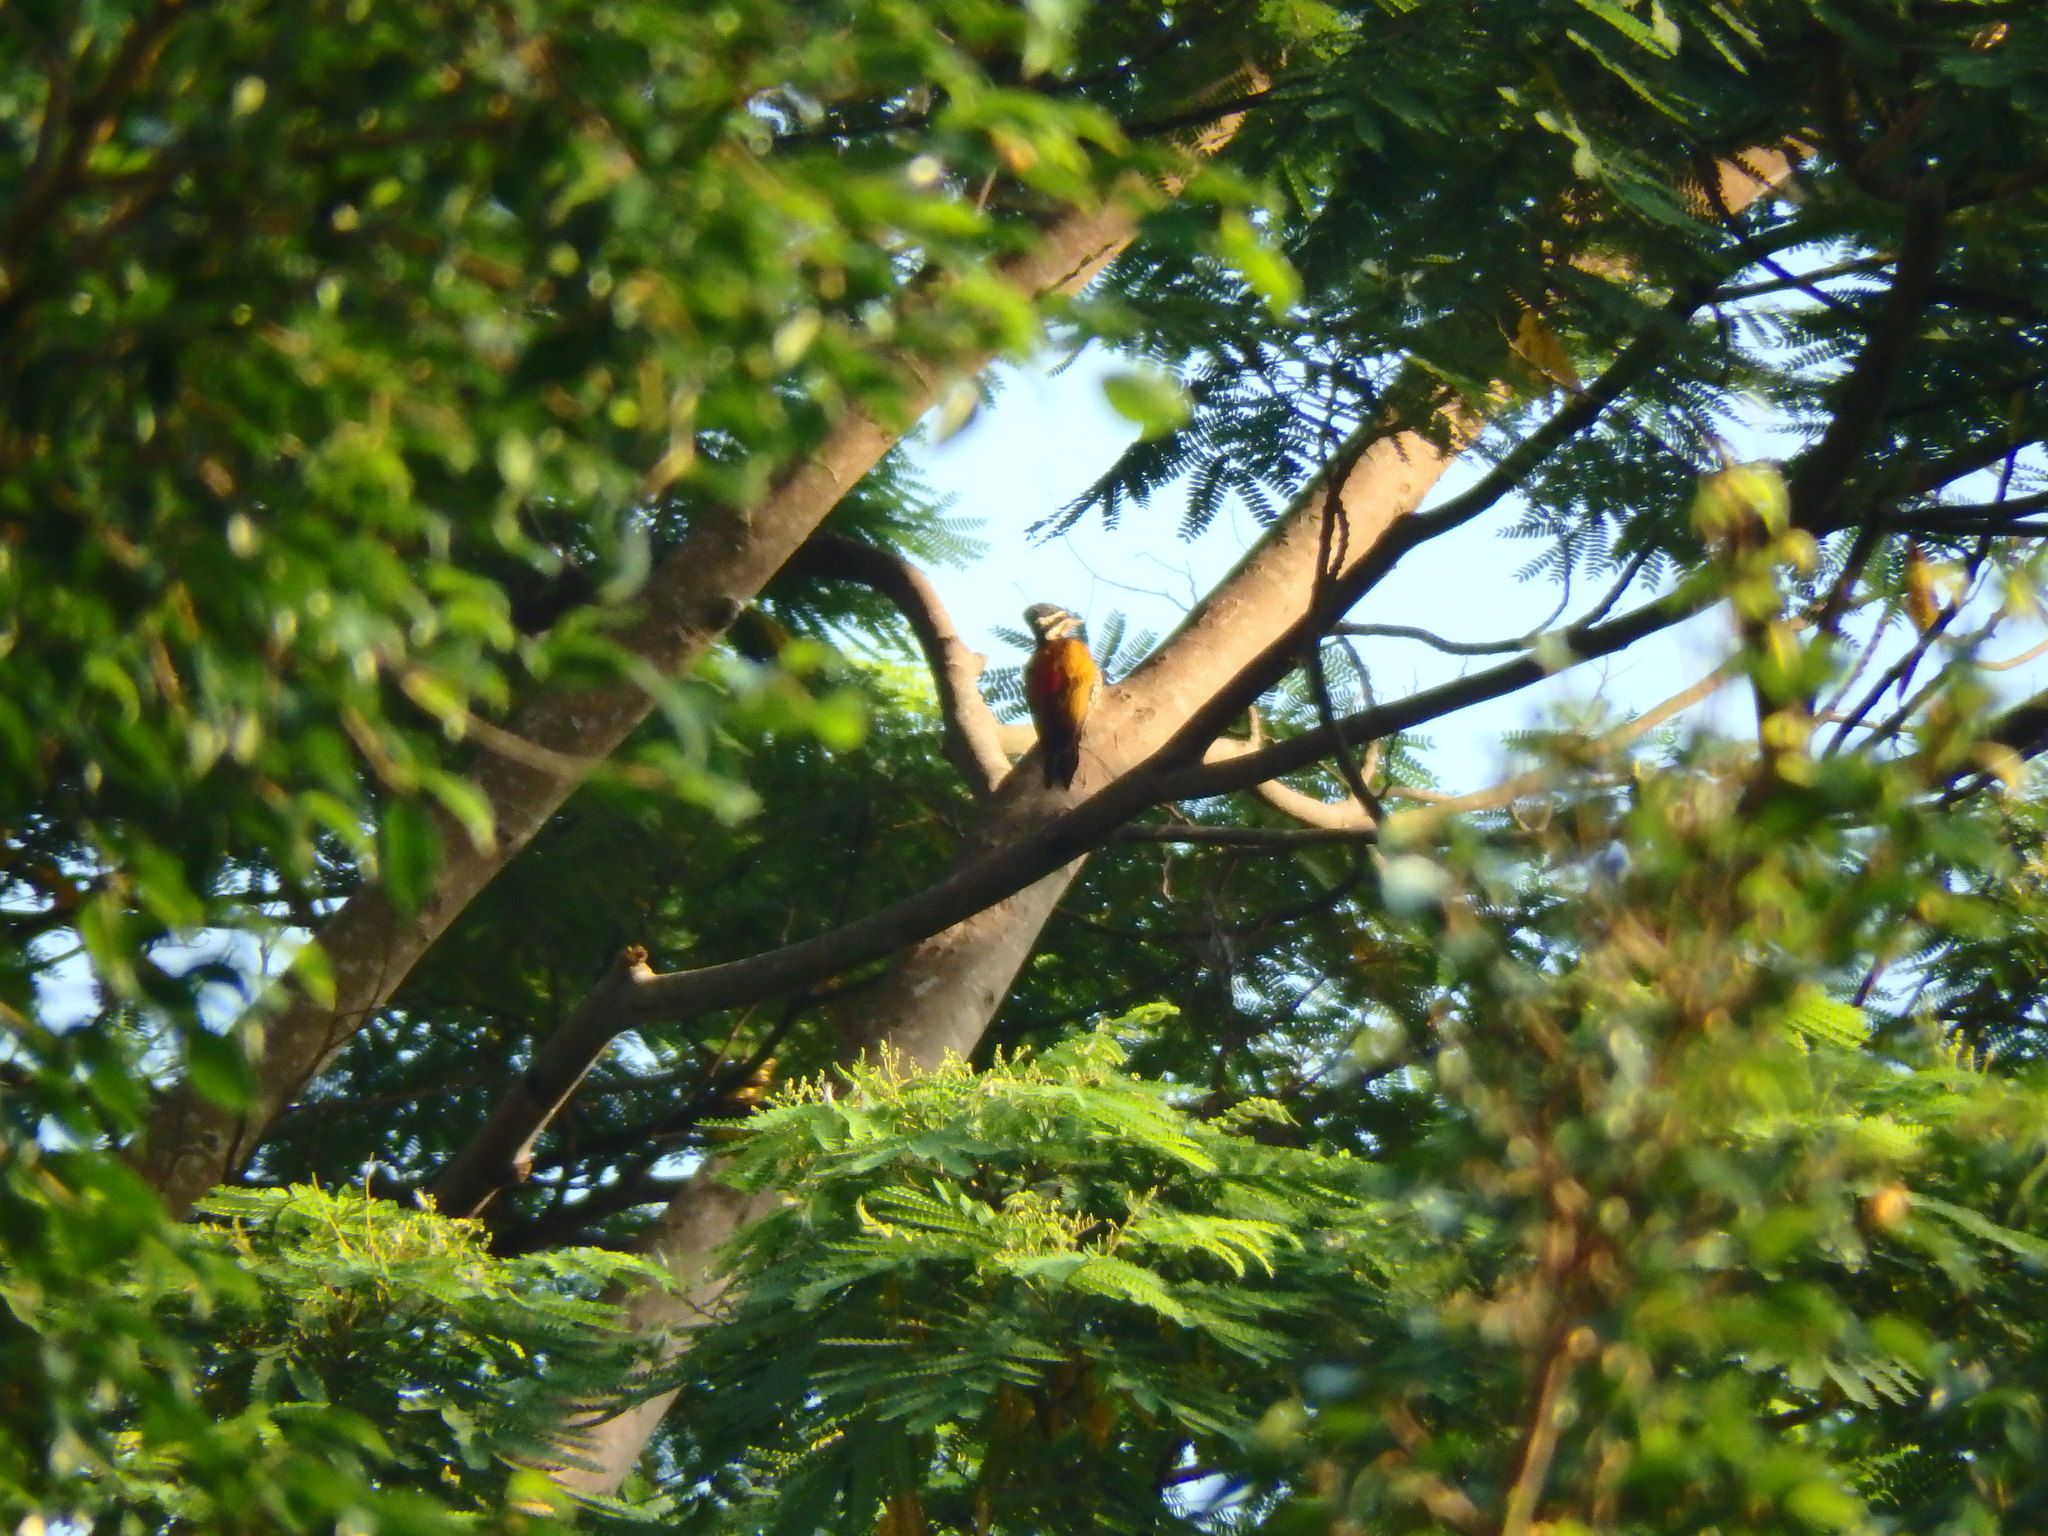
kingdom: Animalia
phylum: Chordata
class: Aves
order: Piciformes
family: Picidae
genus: Dinopium
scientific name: Dinopium javanense
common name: Common flameback
